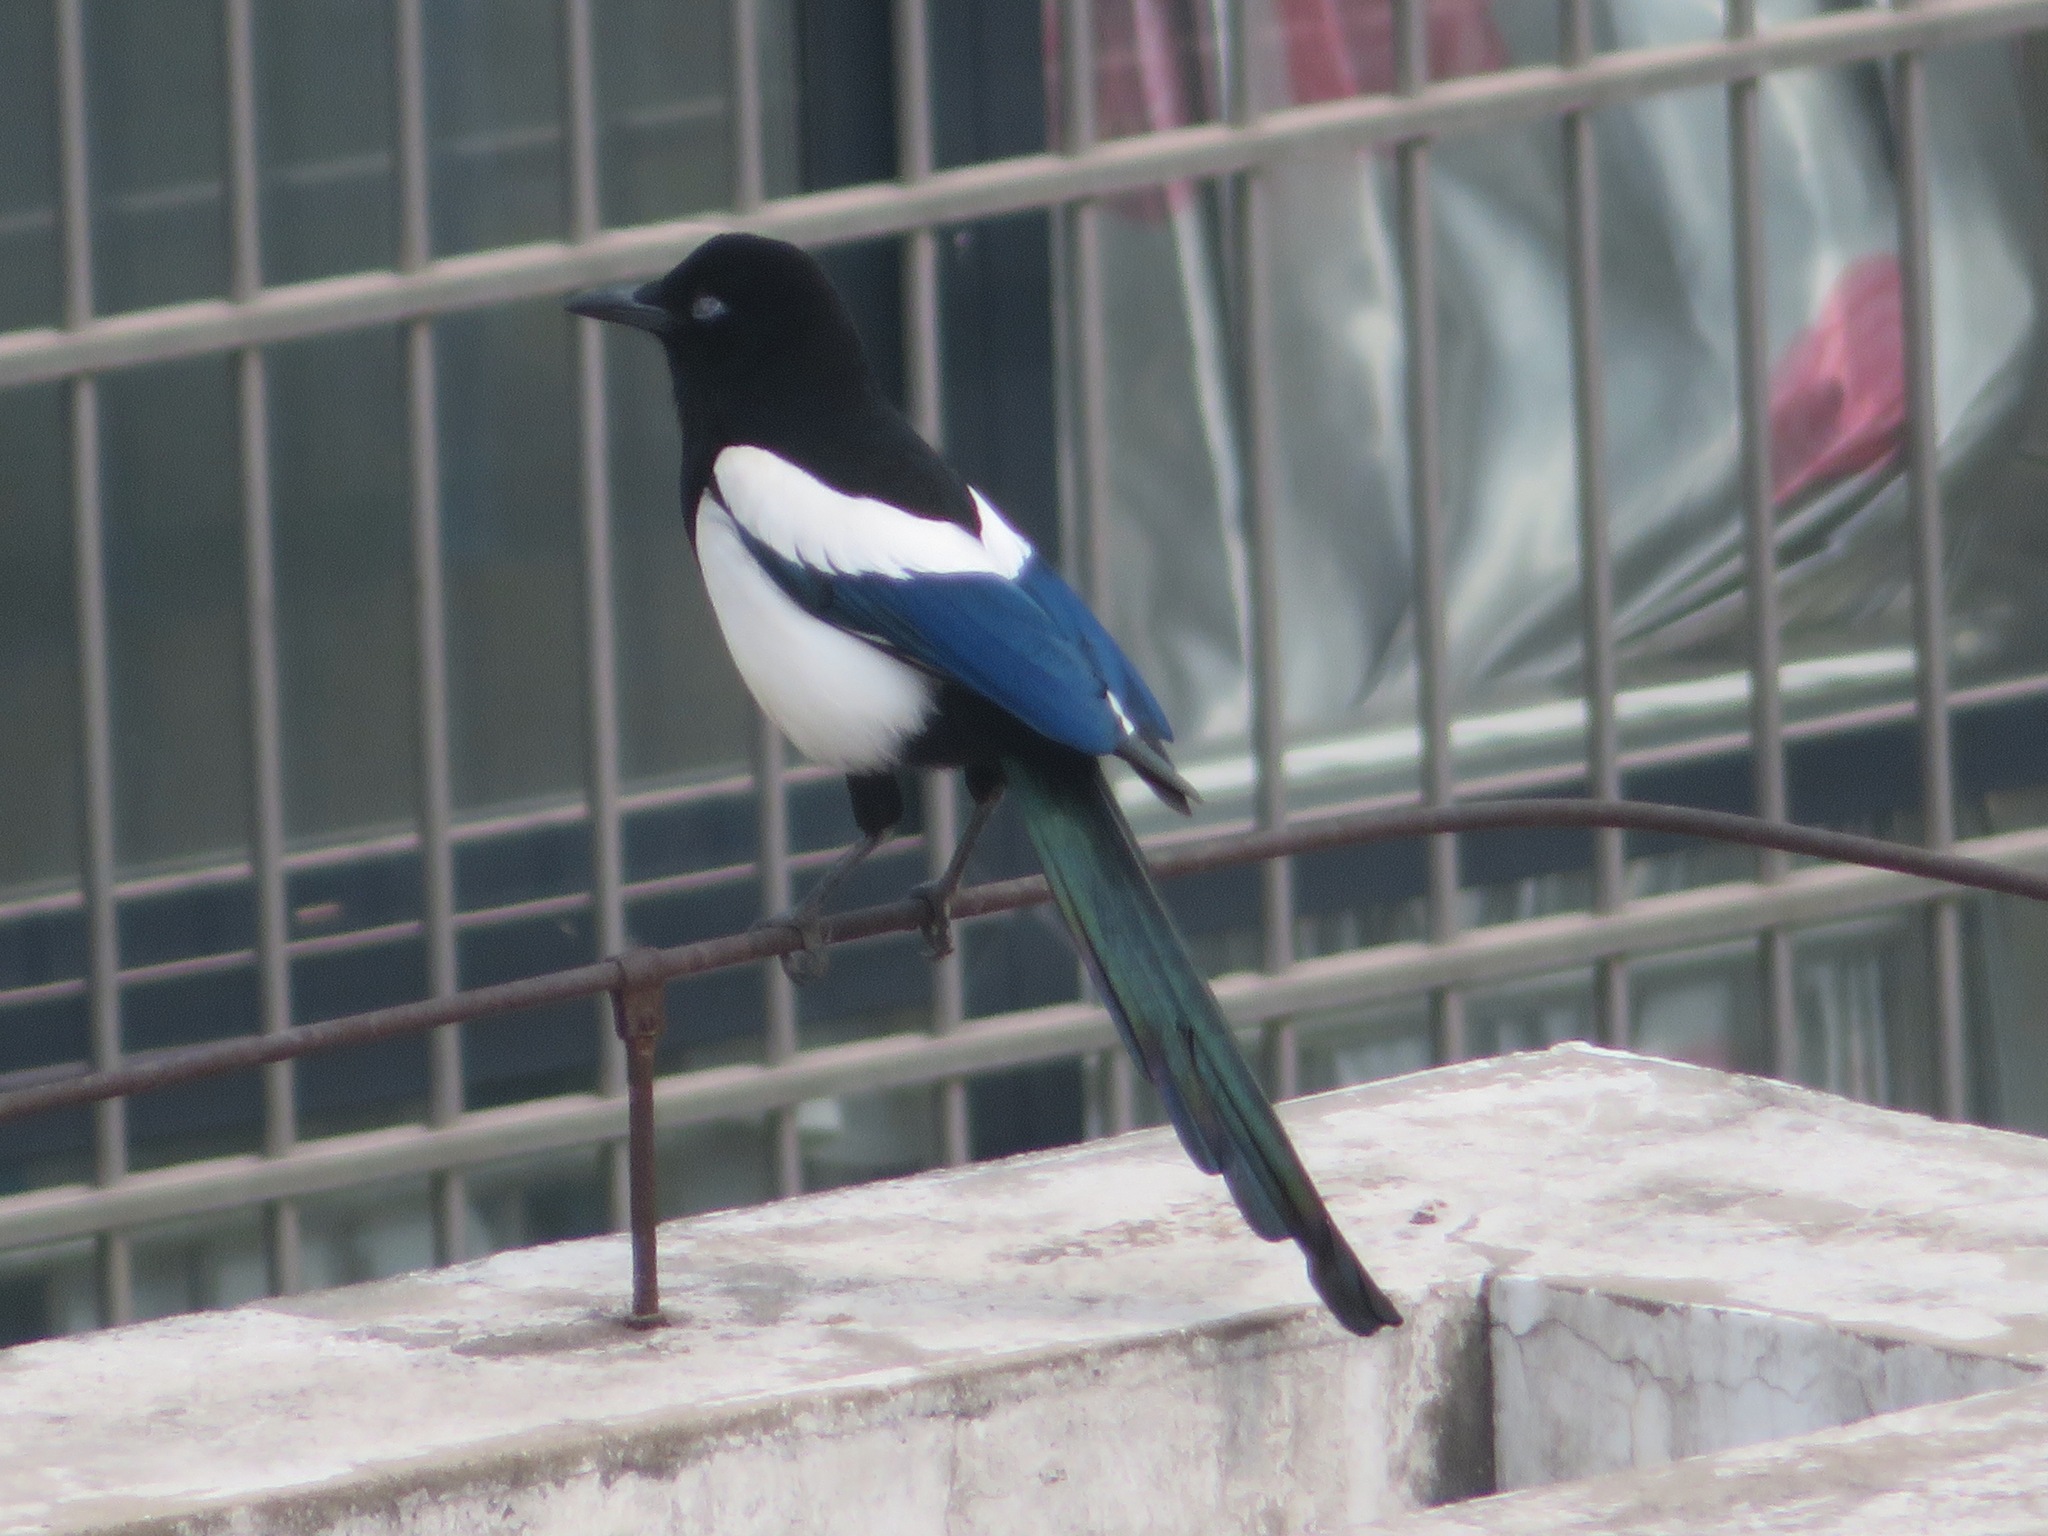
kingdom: Animalia
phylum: Chordata
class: Aves
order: Passeriformes
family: Corvidae
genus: Pica
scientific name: Pica serica
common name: Oriental magpie
